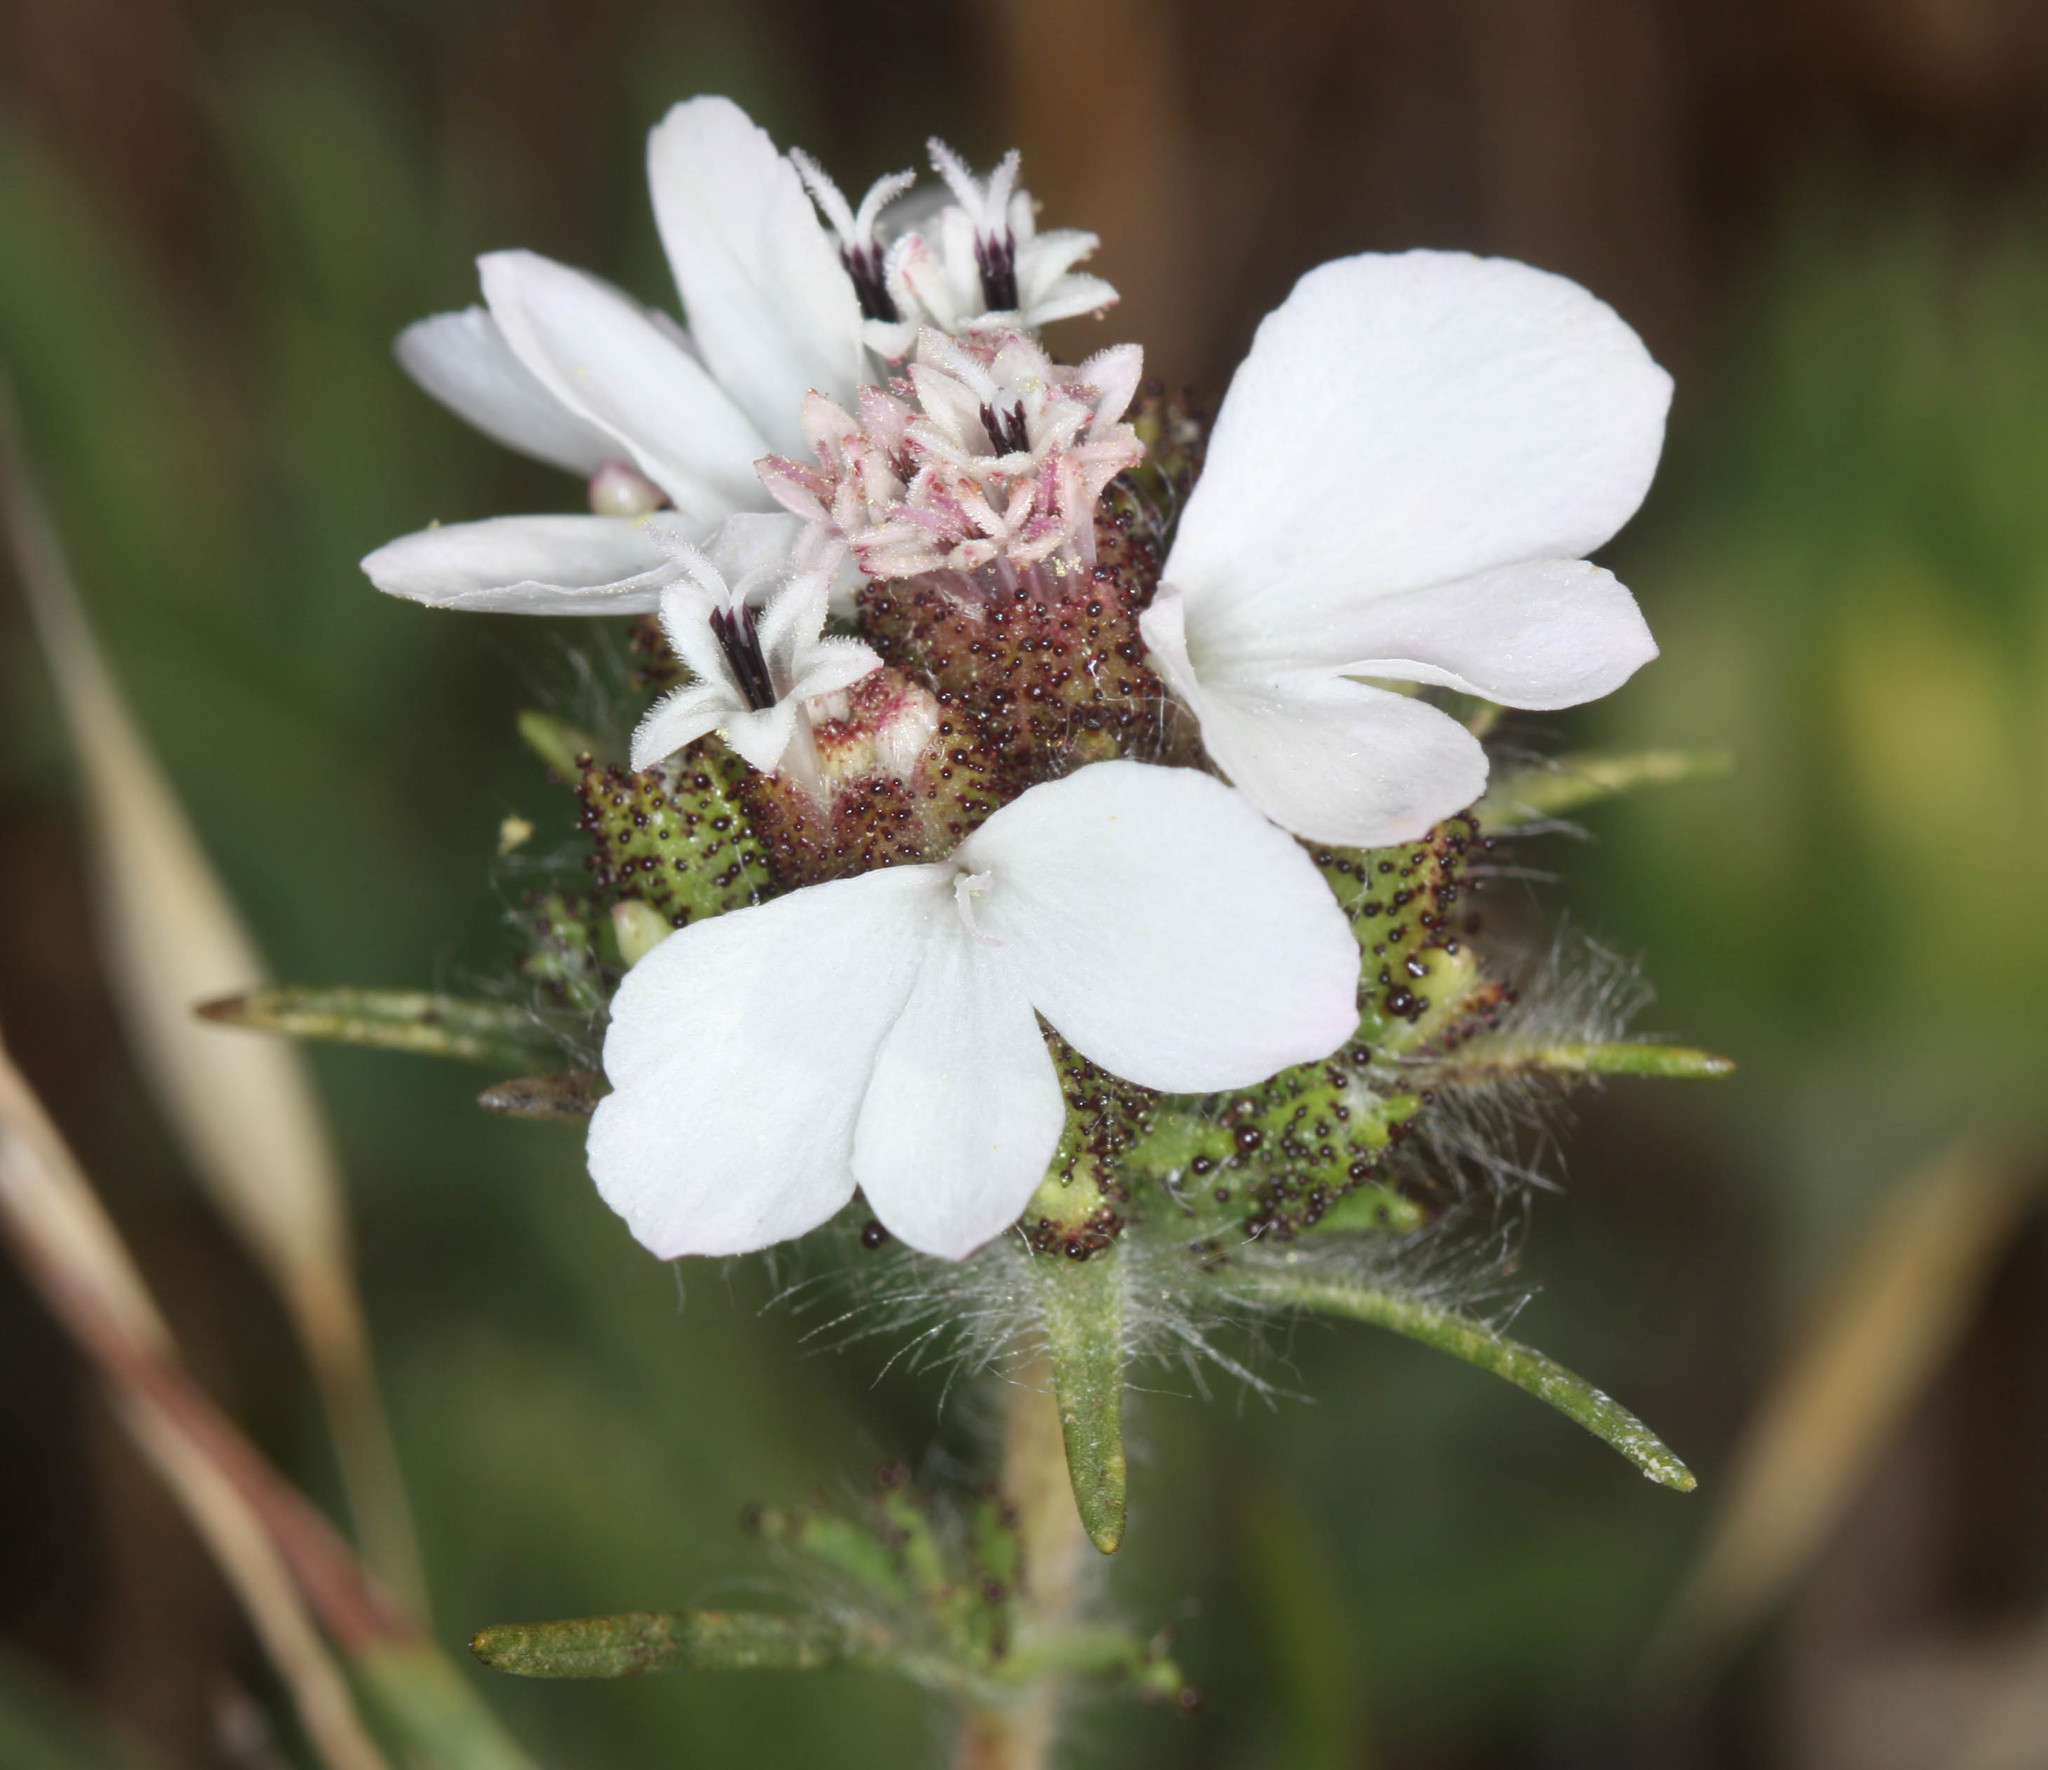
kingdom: Plantae
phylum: Tracheophyta
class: Magnoliopsida
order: Asterales
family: Asteraceae
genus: Calycadenia
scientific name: Calycadenia multiglandulosa
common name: Sticky calycadenia
